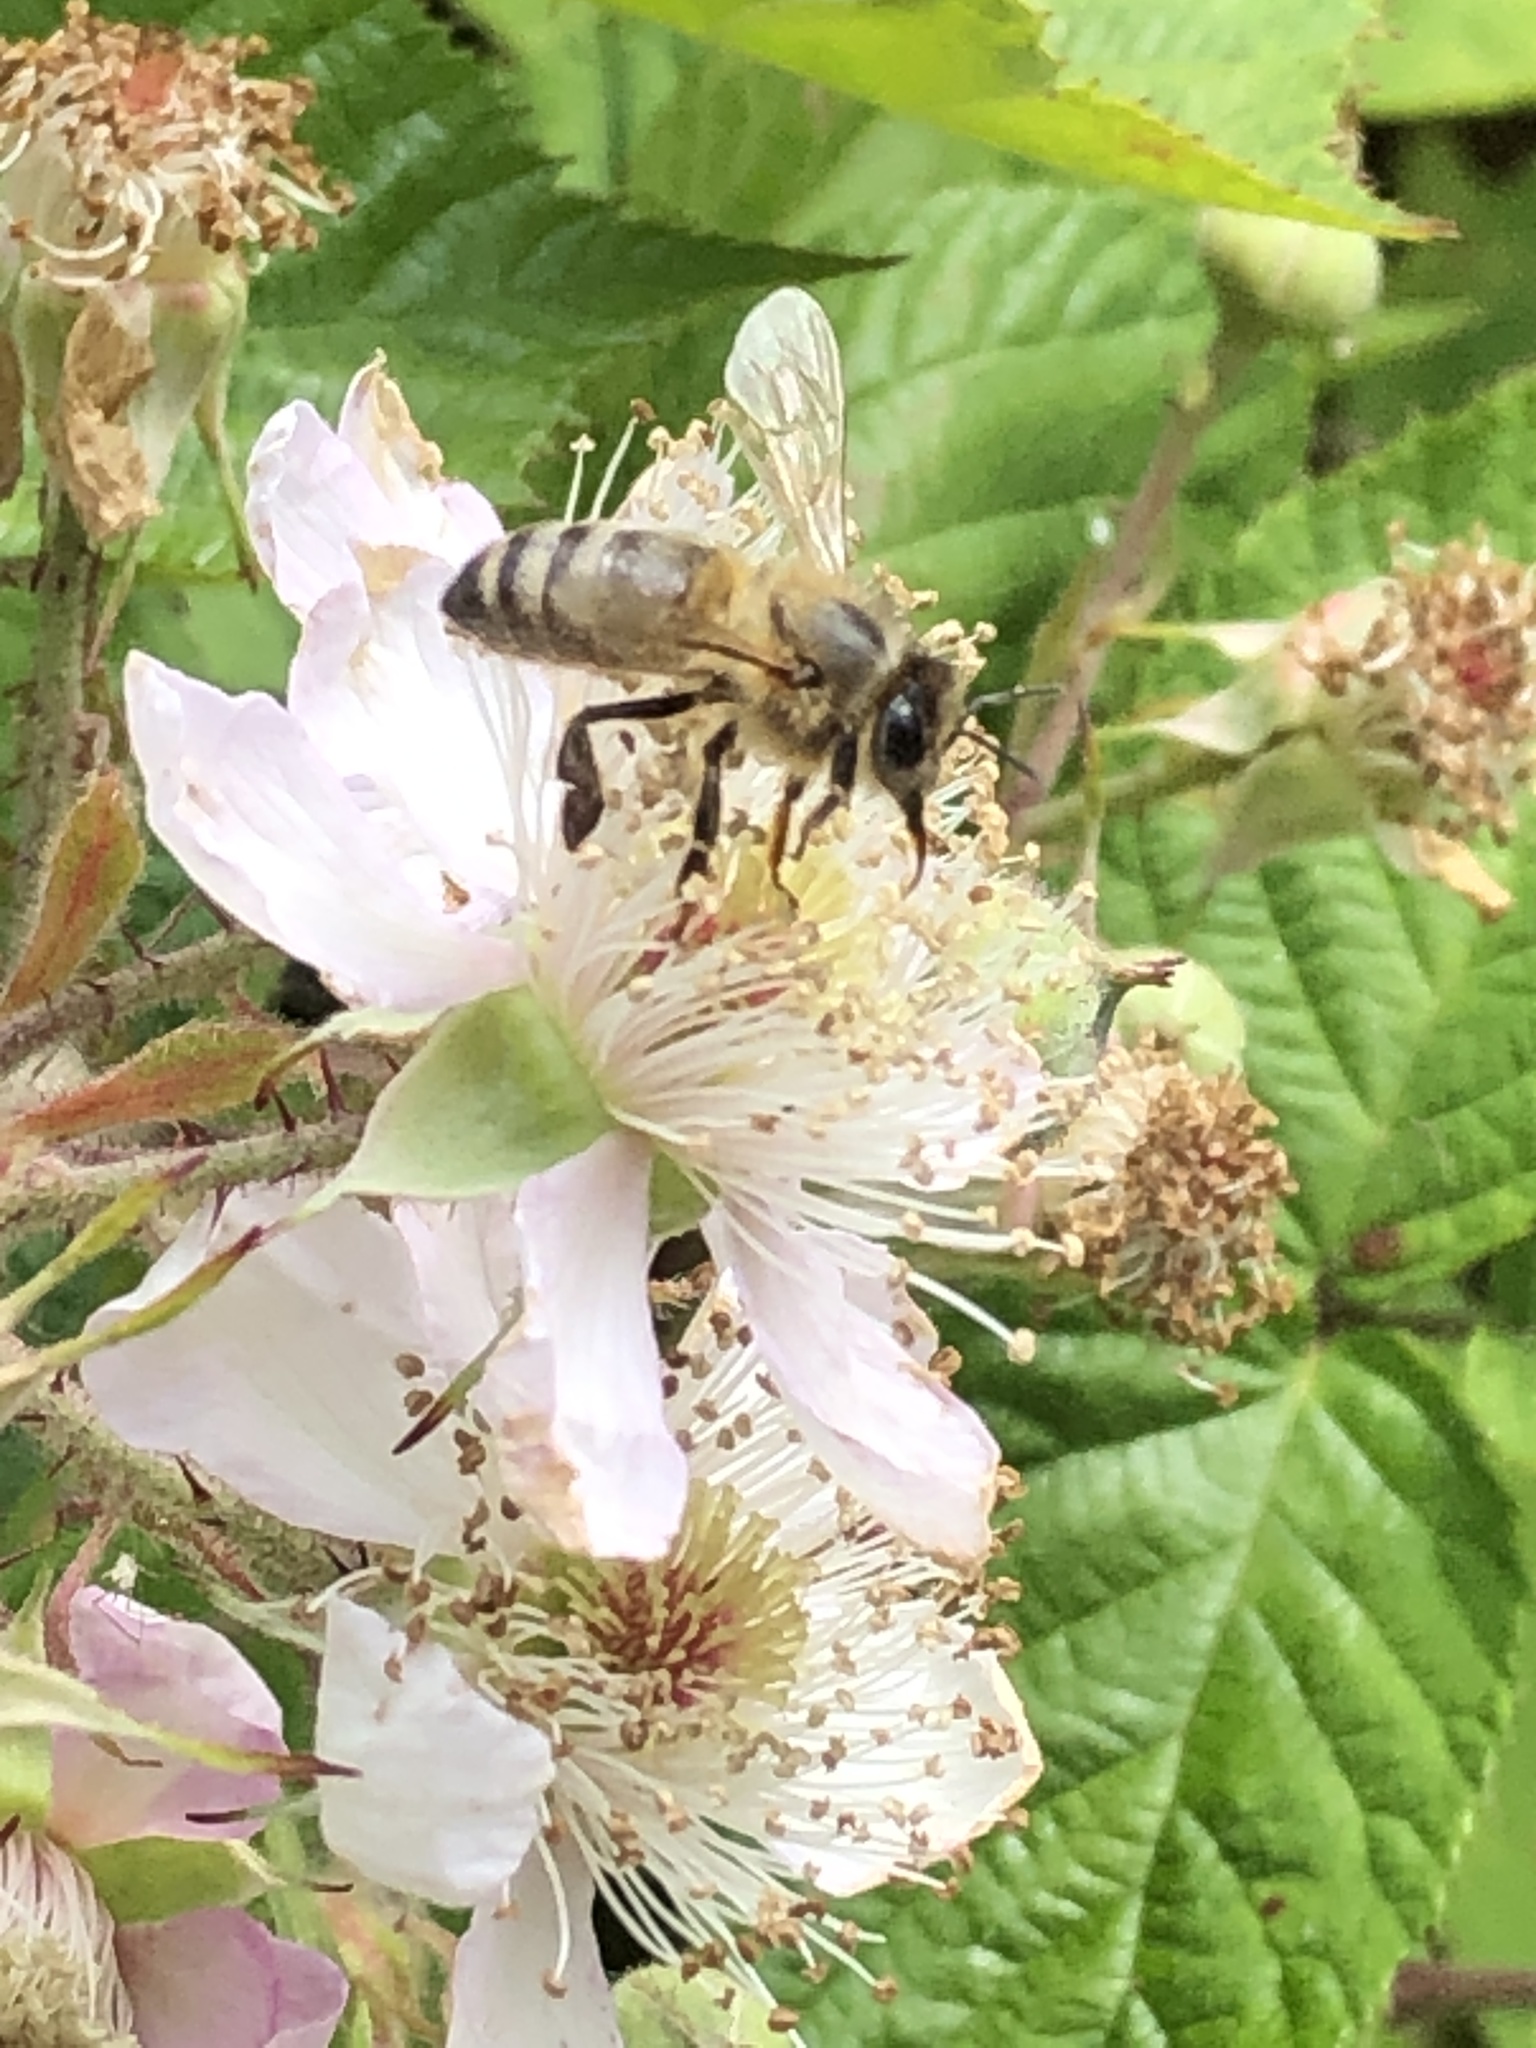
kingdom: Animalia
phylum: Arthropoda
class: Insecta
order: Hymenoptera
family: Apidae
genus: Apis
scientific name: Apis mellifera
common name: Honey bee
